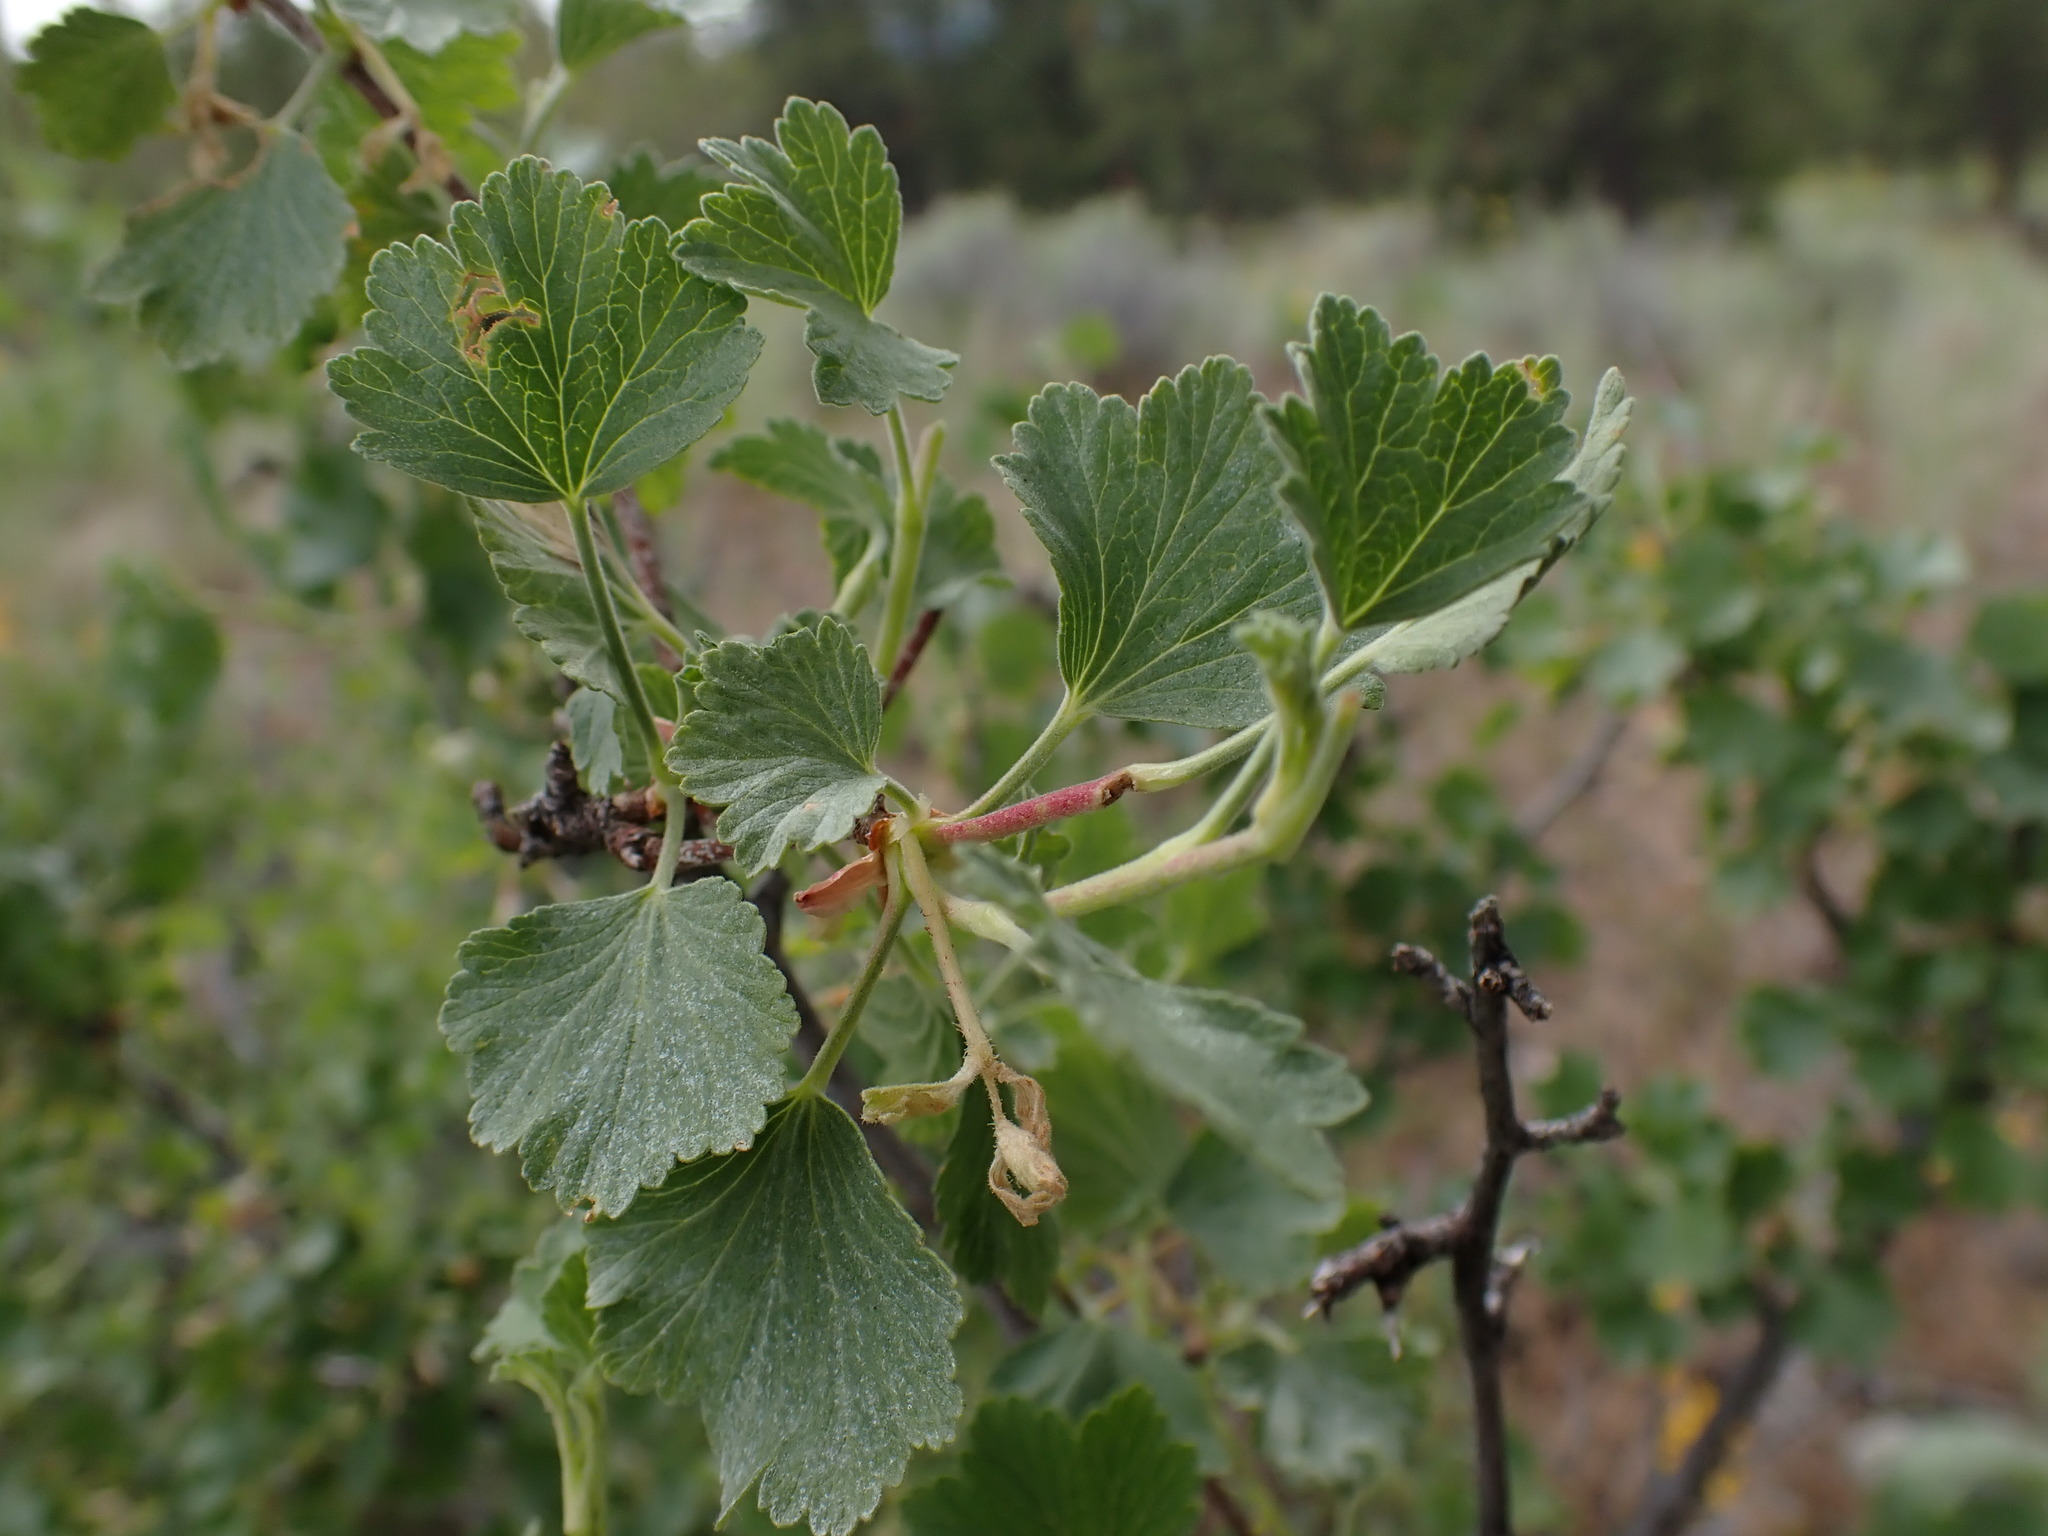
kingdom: Plantae
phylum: Tracheophyta
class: Magnoliopsida
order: Saxifragales
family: Grossulariaceae
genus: Ribes
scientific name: Ribes cereum
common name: Wax currant
